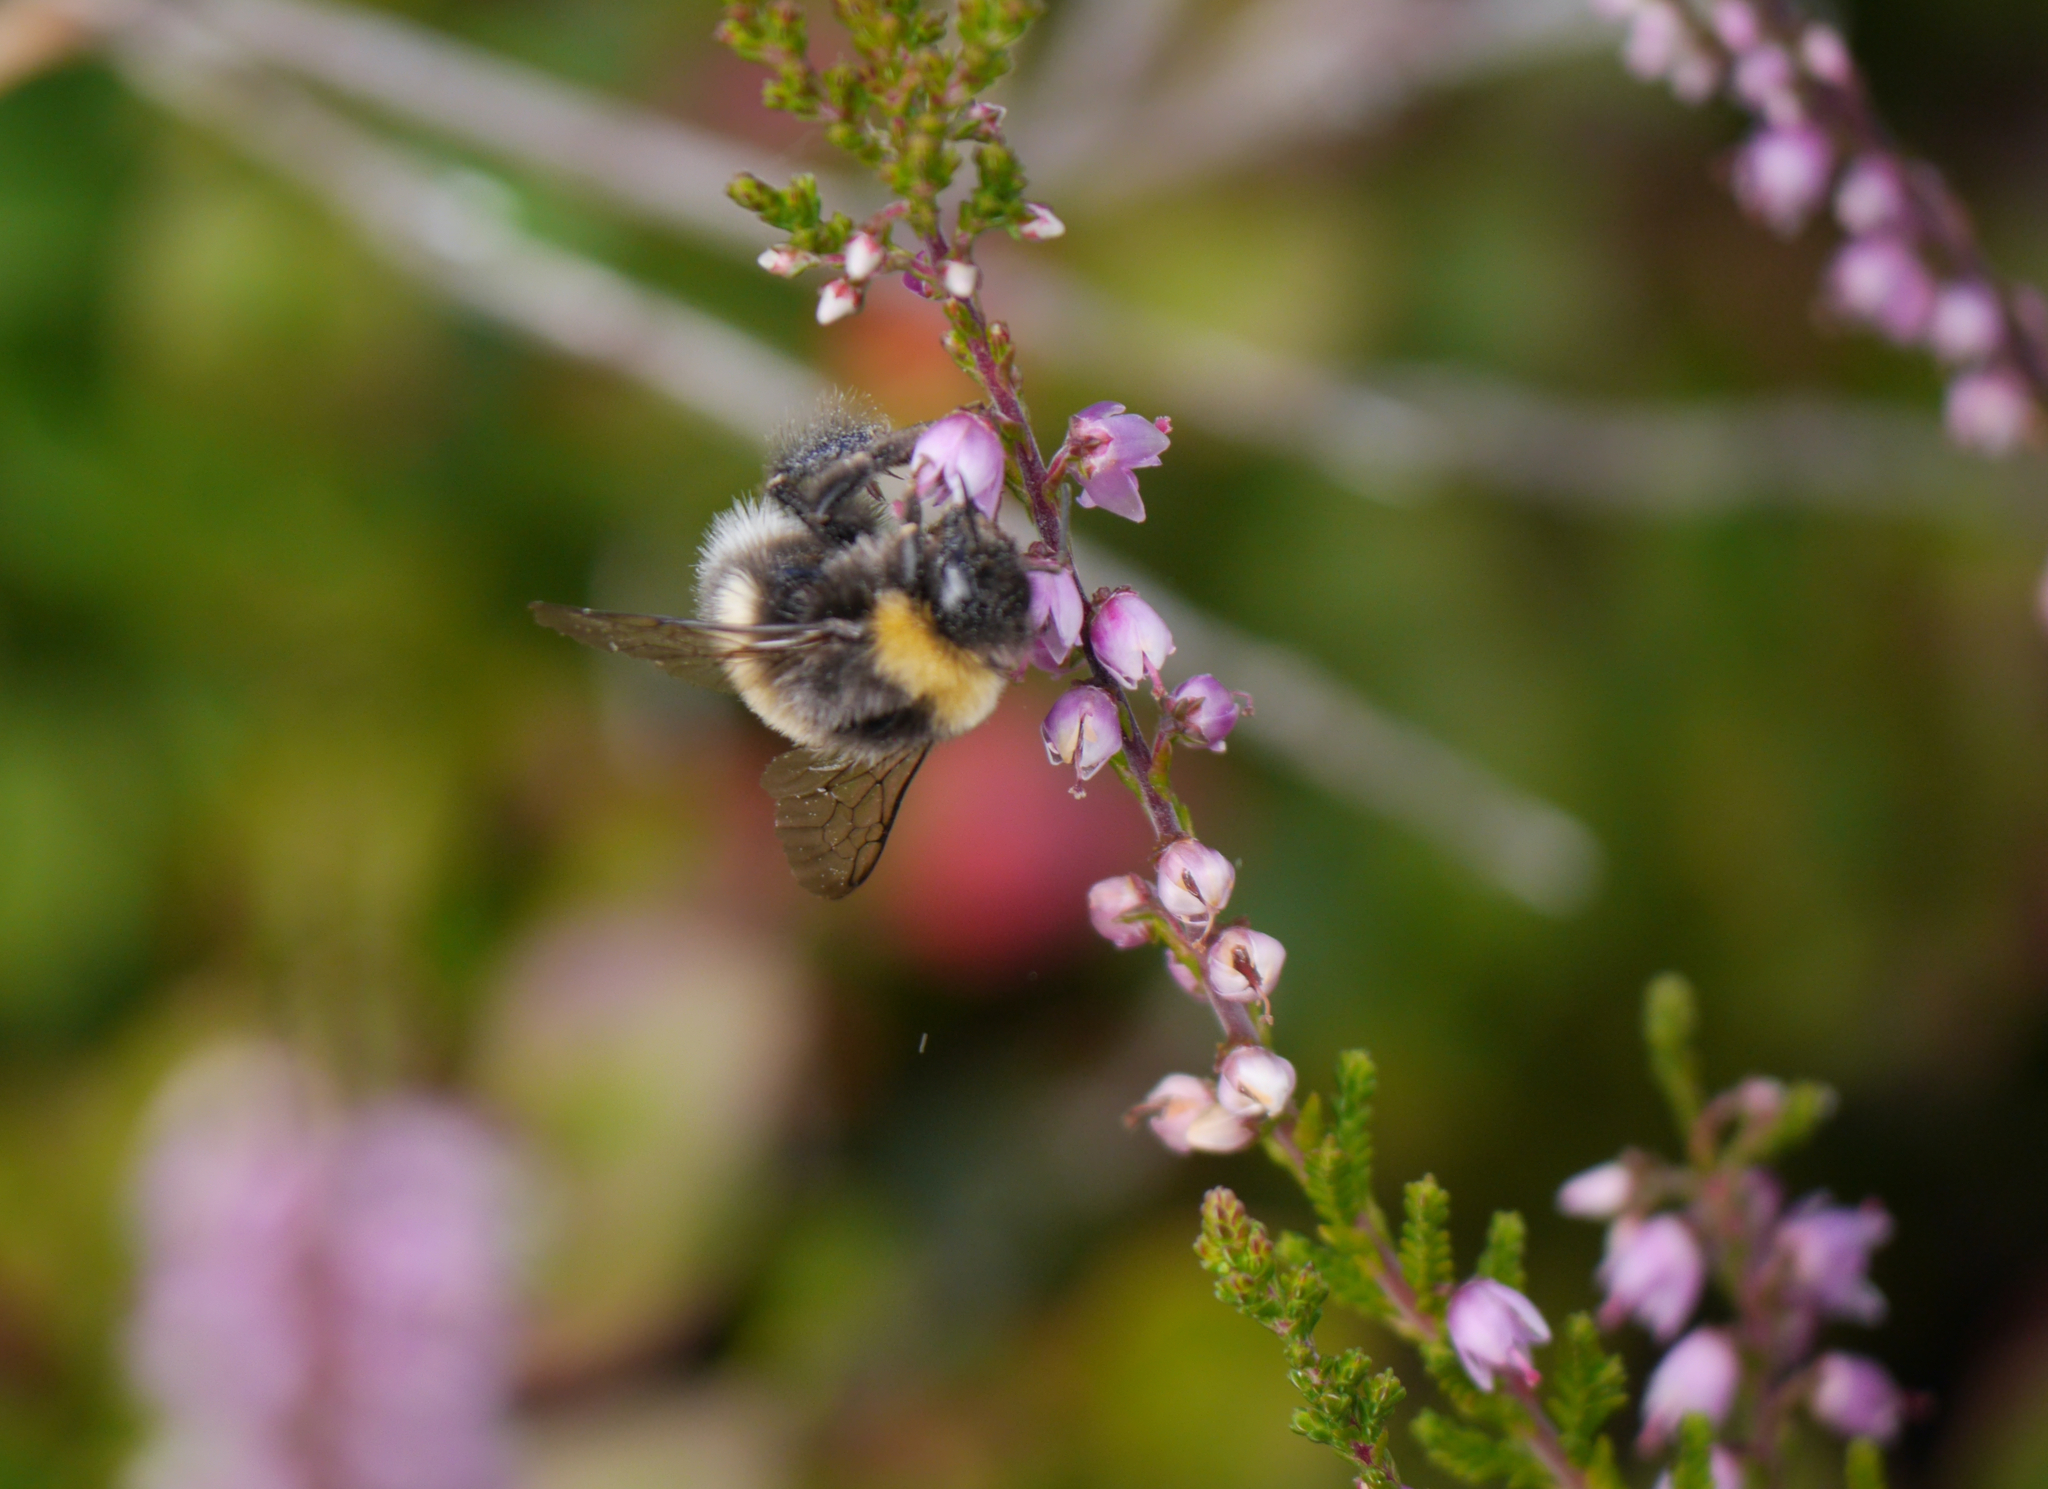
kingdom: Animalia
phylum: Arthropoda
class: Insecta
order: Hymenoptera
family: Apidae
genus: Bombus
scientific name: Bombus
